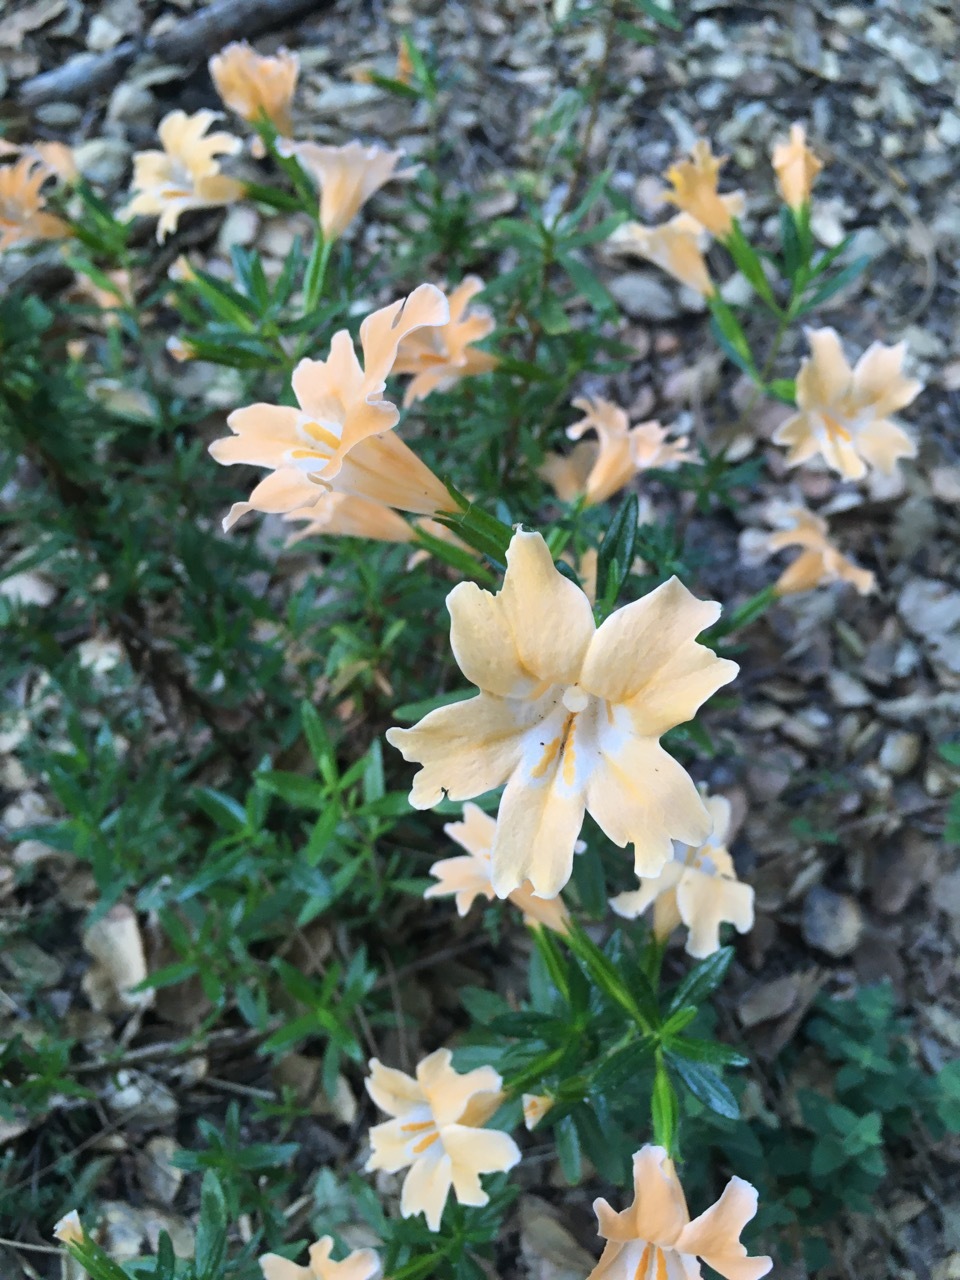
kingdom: Plantae
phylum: Tracheophyta
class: Magnoliopsida
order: Lamiales
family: Phrymaceae
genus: Diplacus
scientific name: Diplacus linearis
